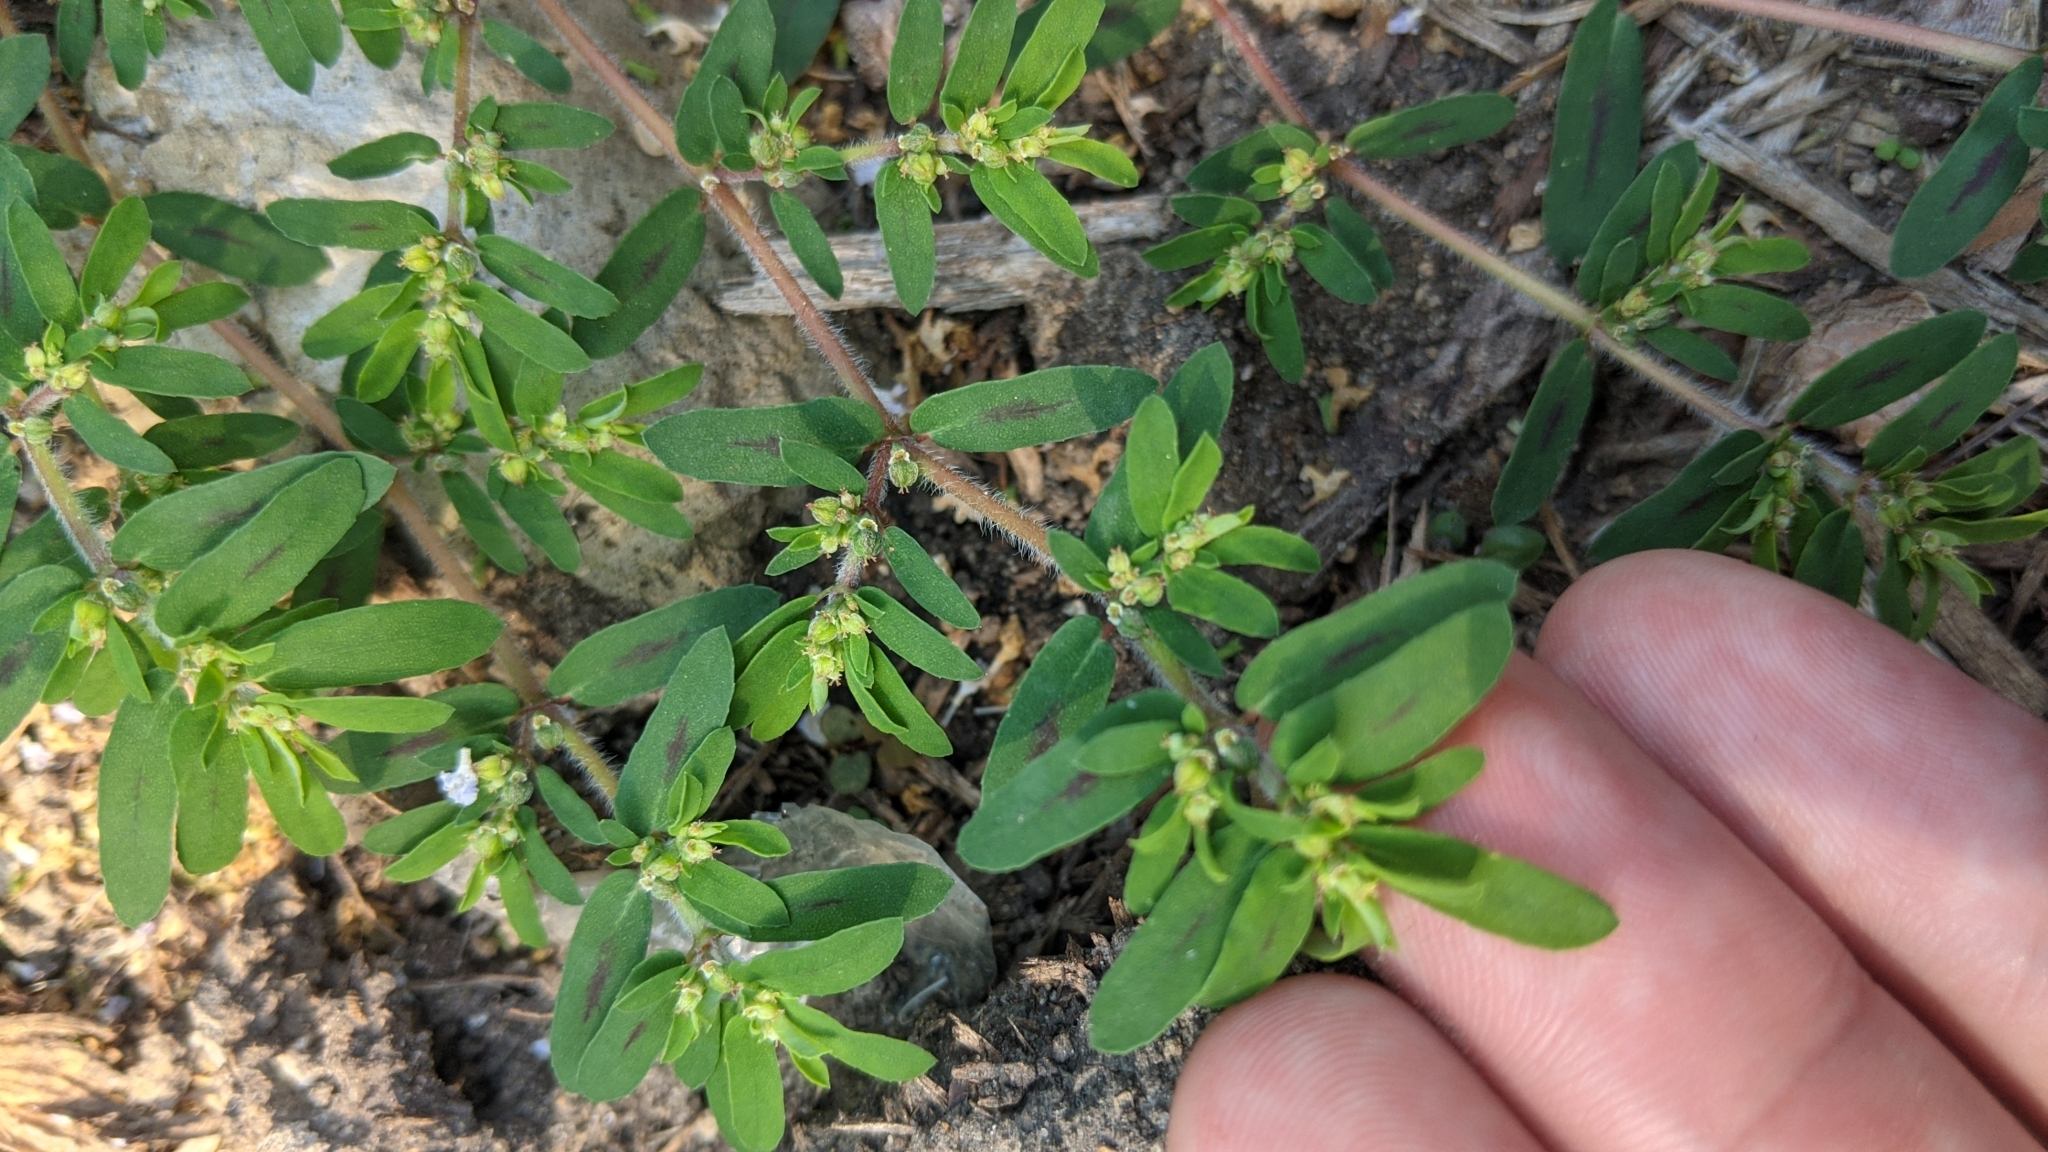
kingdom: Plantae
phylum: Tracheophyta
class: Magnoliopsida
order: Malpighiales
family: Euphorbiaceae
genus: Euphorbia
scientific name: Euphorbia maculata
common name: Spotted spurge
